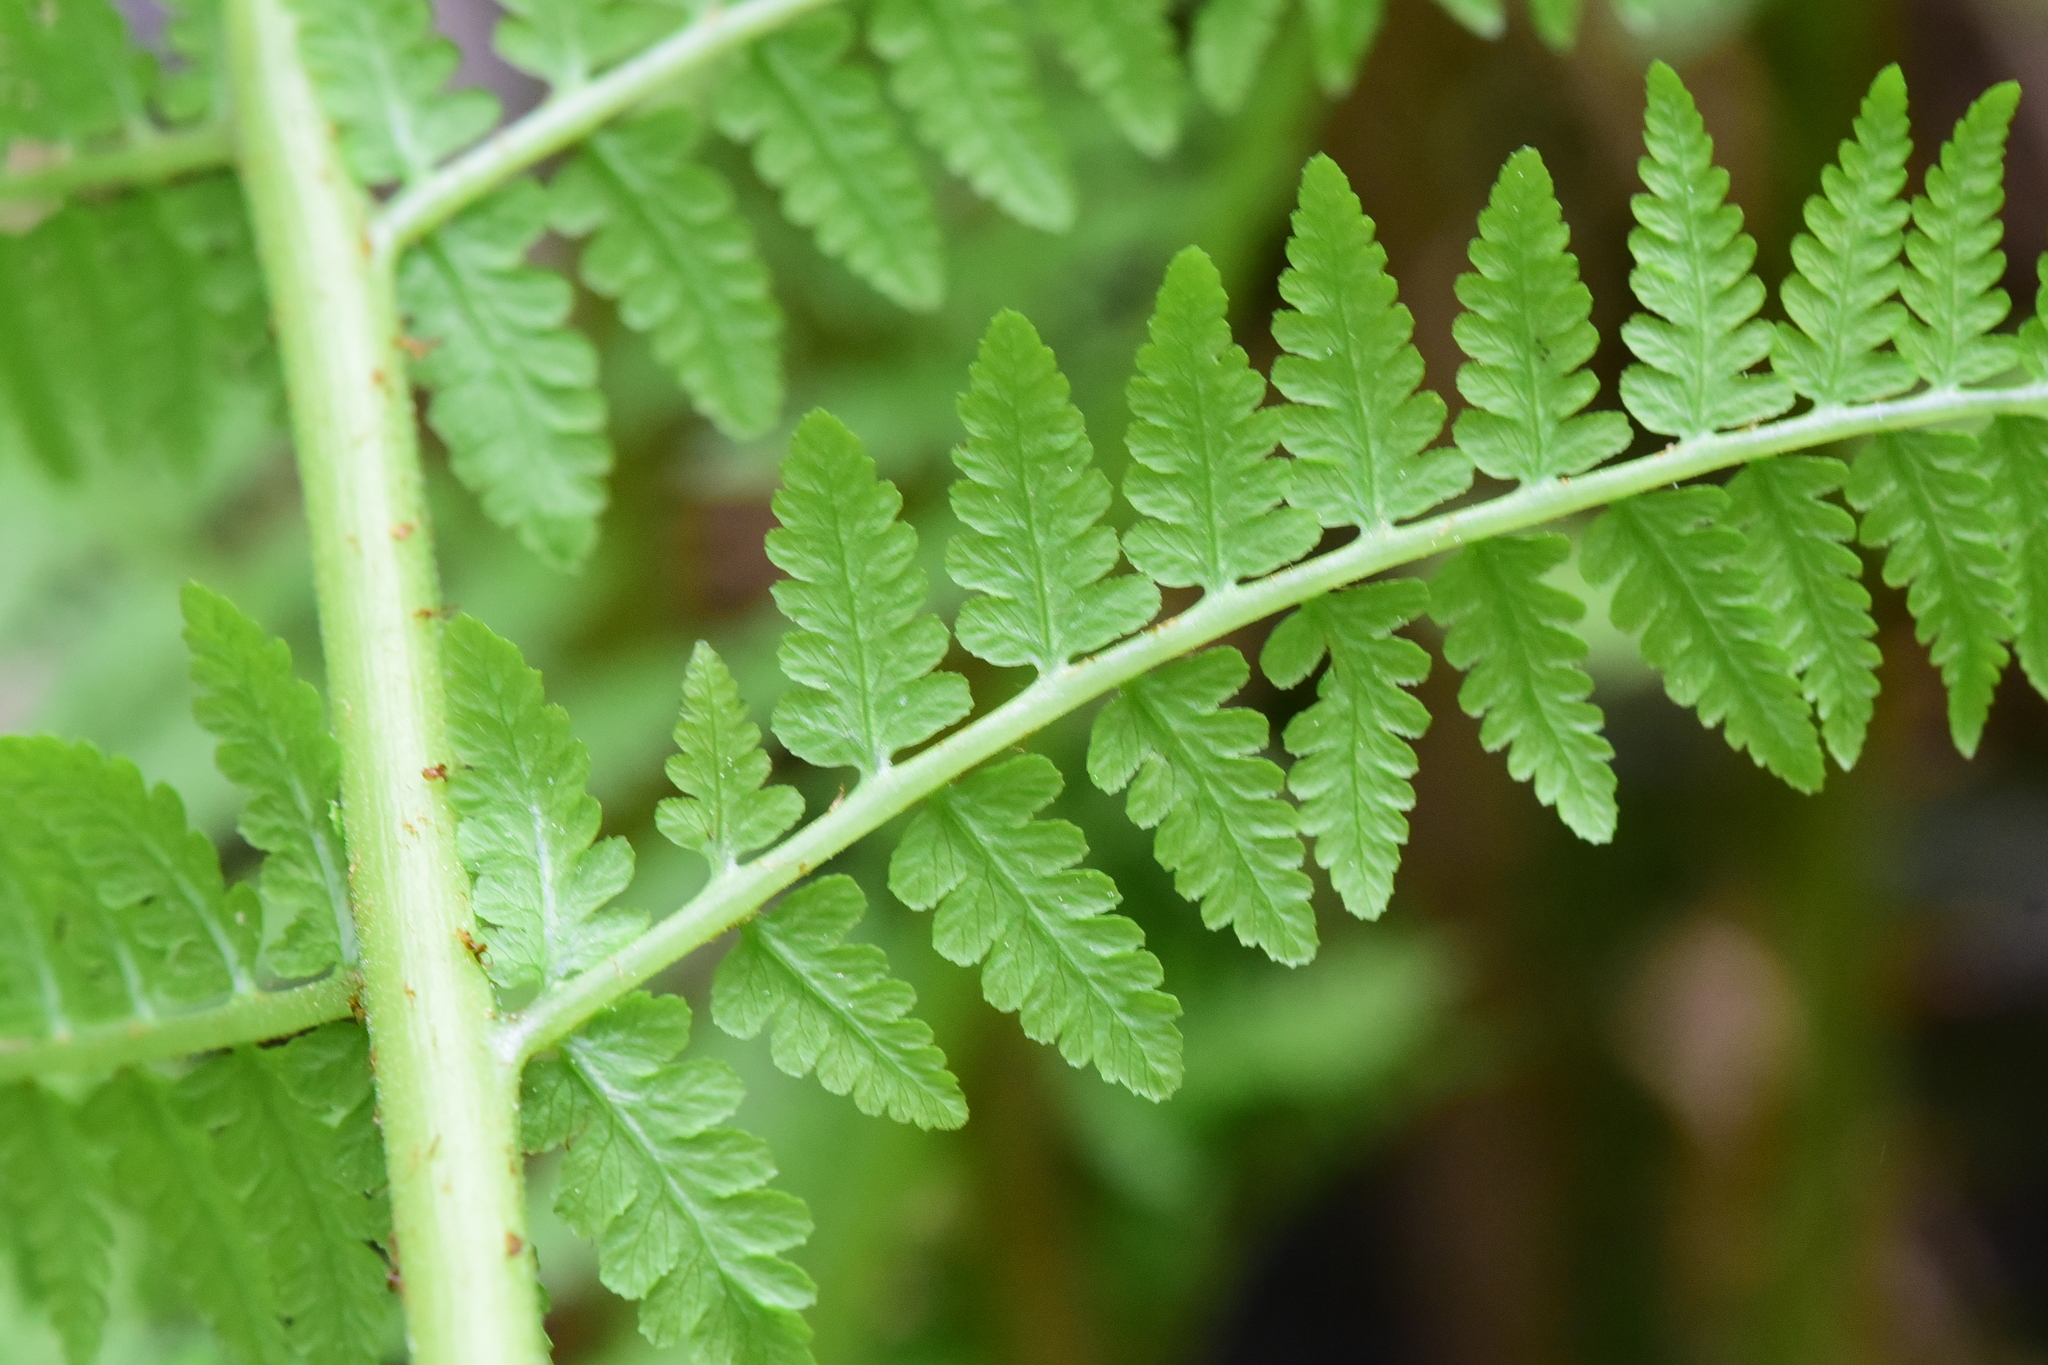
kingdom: Plantae
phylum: Tracheophyta
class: Polypodiopsida
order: Polypodiales
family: Athyriaceae
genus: Athyrium
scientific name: Athyrium filix-femina
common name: Lady fern
